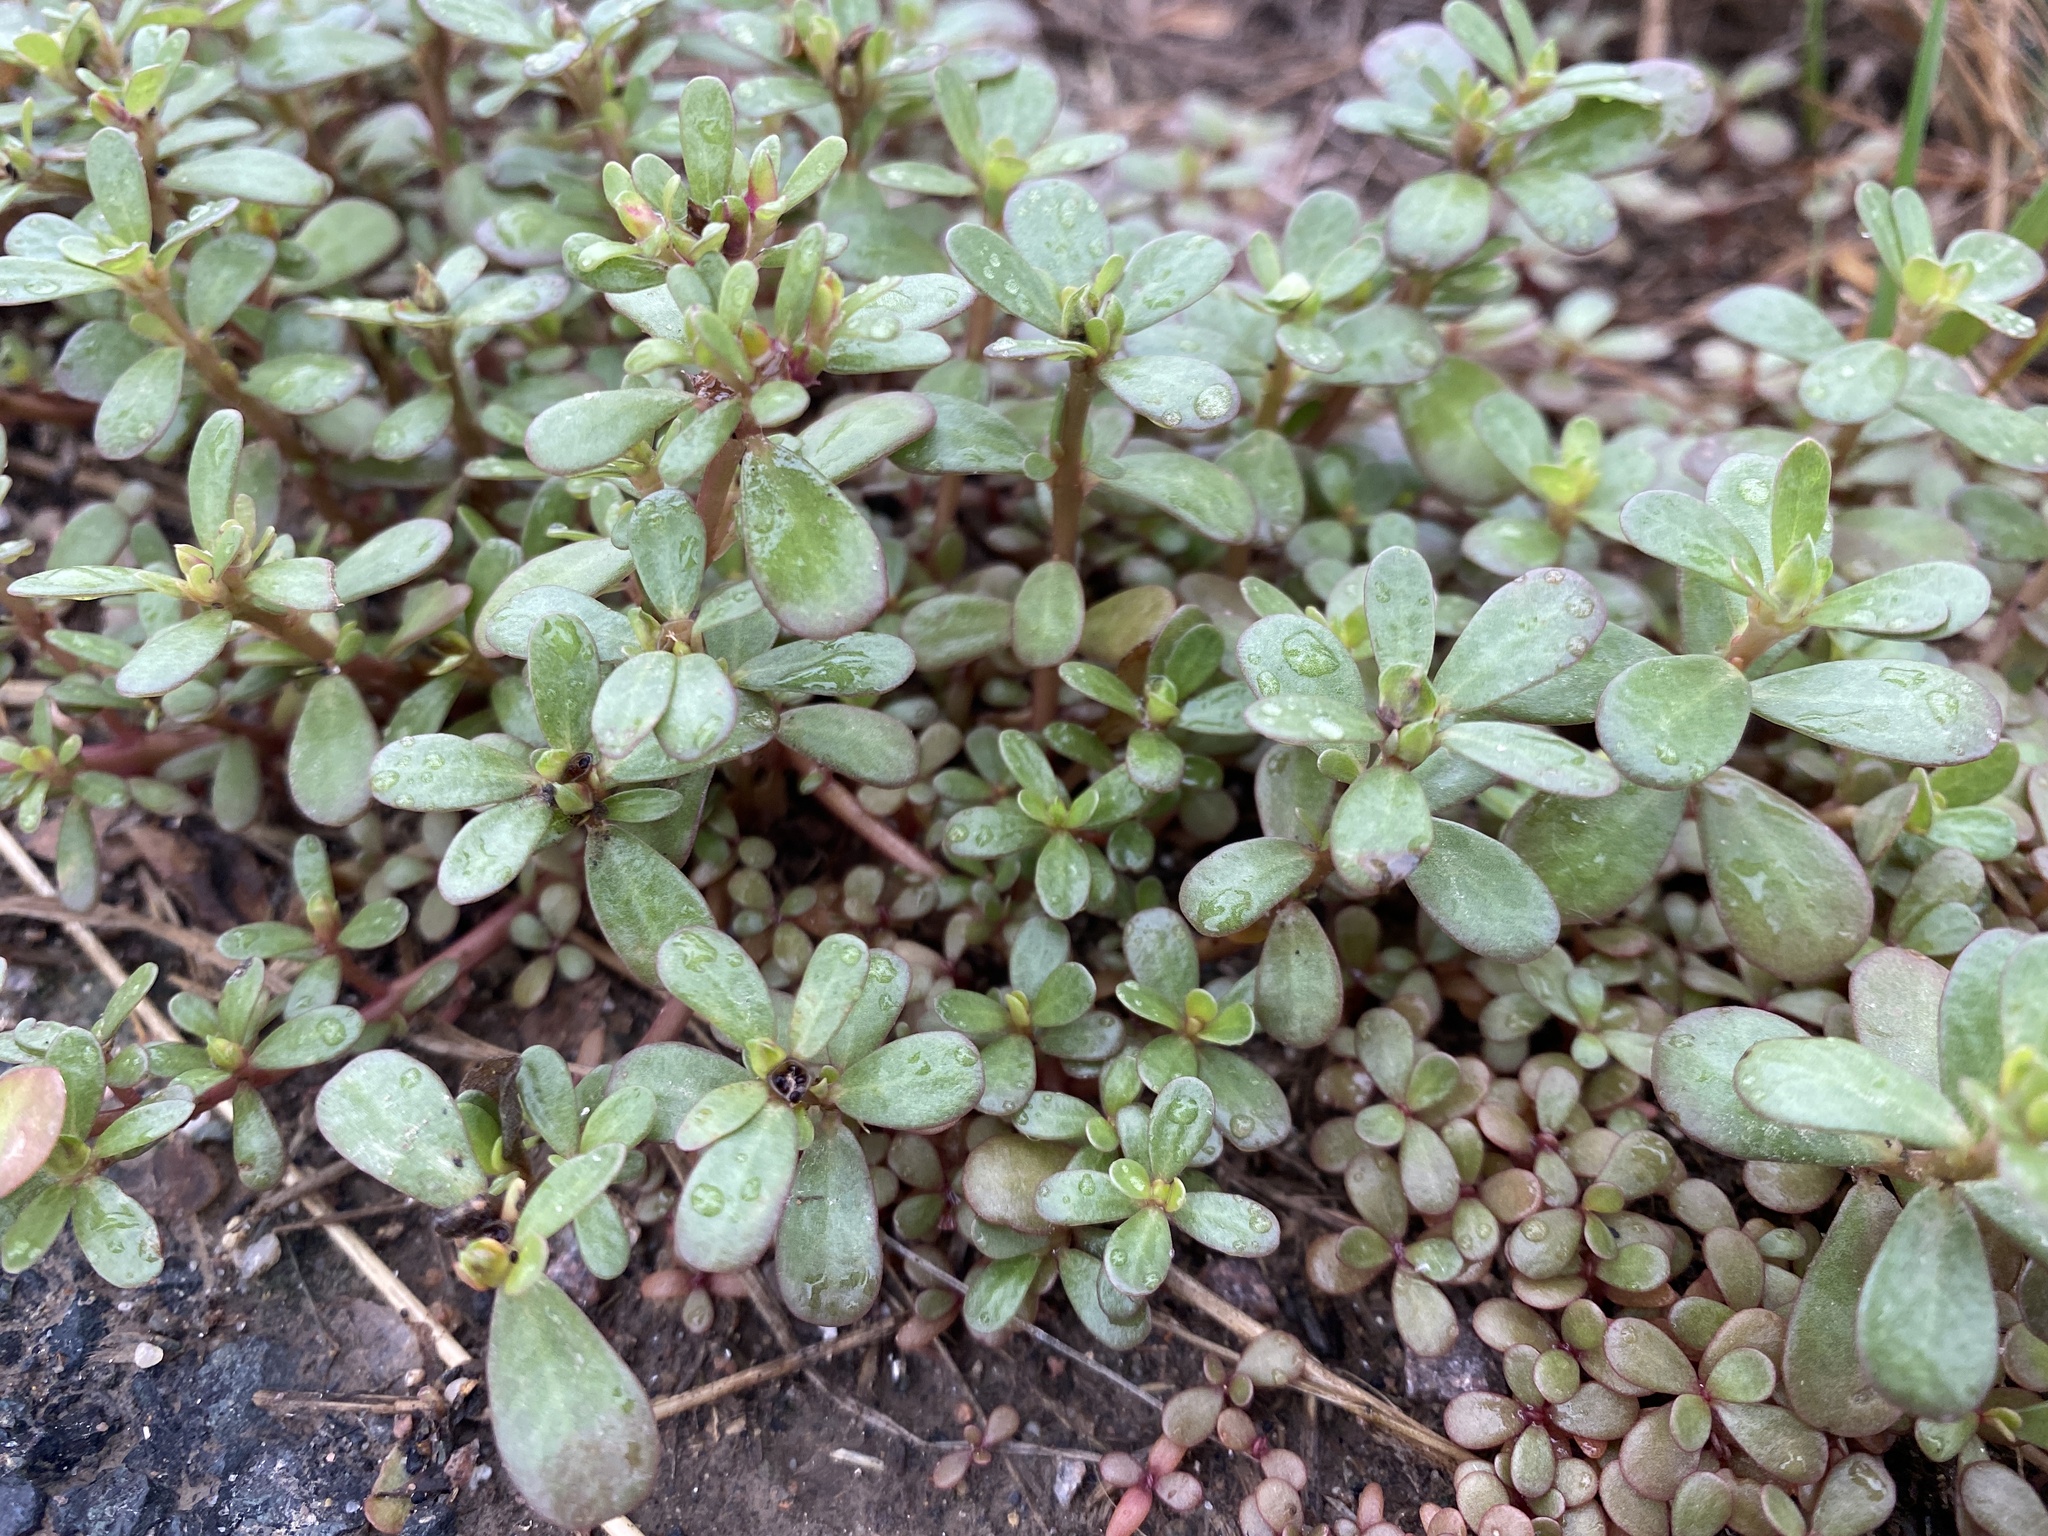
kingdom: Plantae
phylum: Tracheophyta
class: Magnoliopsida
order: Caryophyllales
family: Portulacaceae
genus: Portulaca
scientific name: Portulaca oleracea
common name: Common purslane
